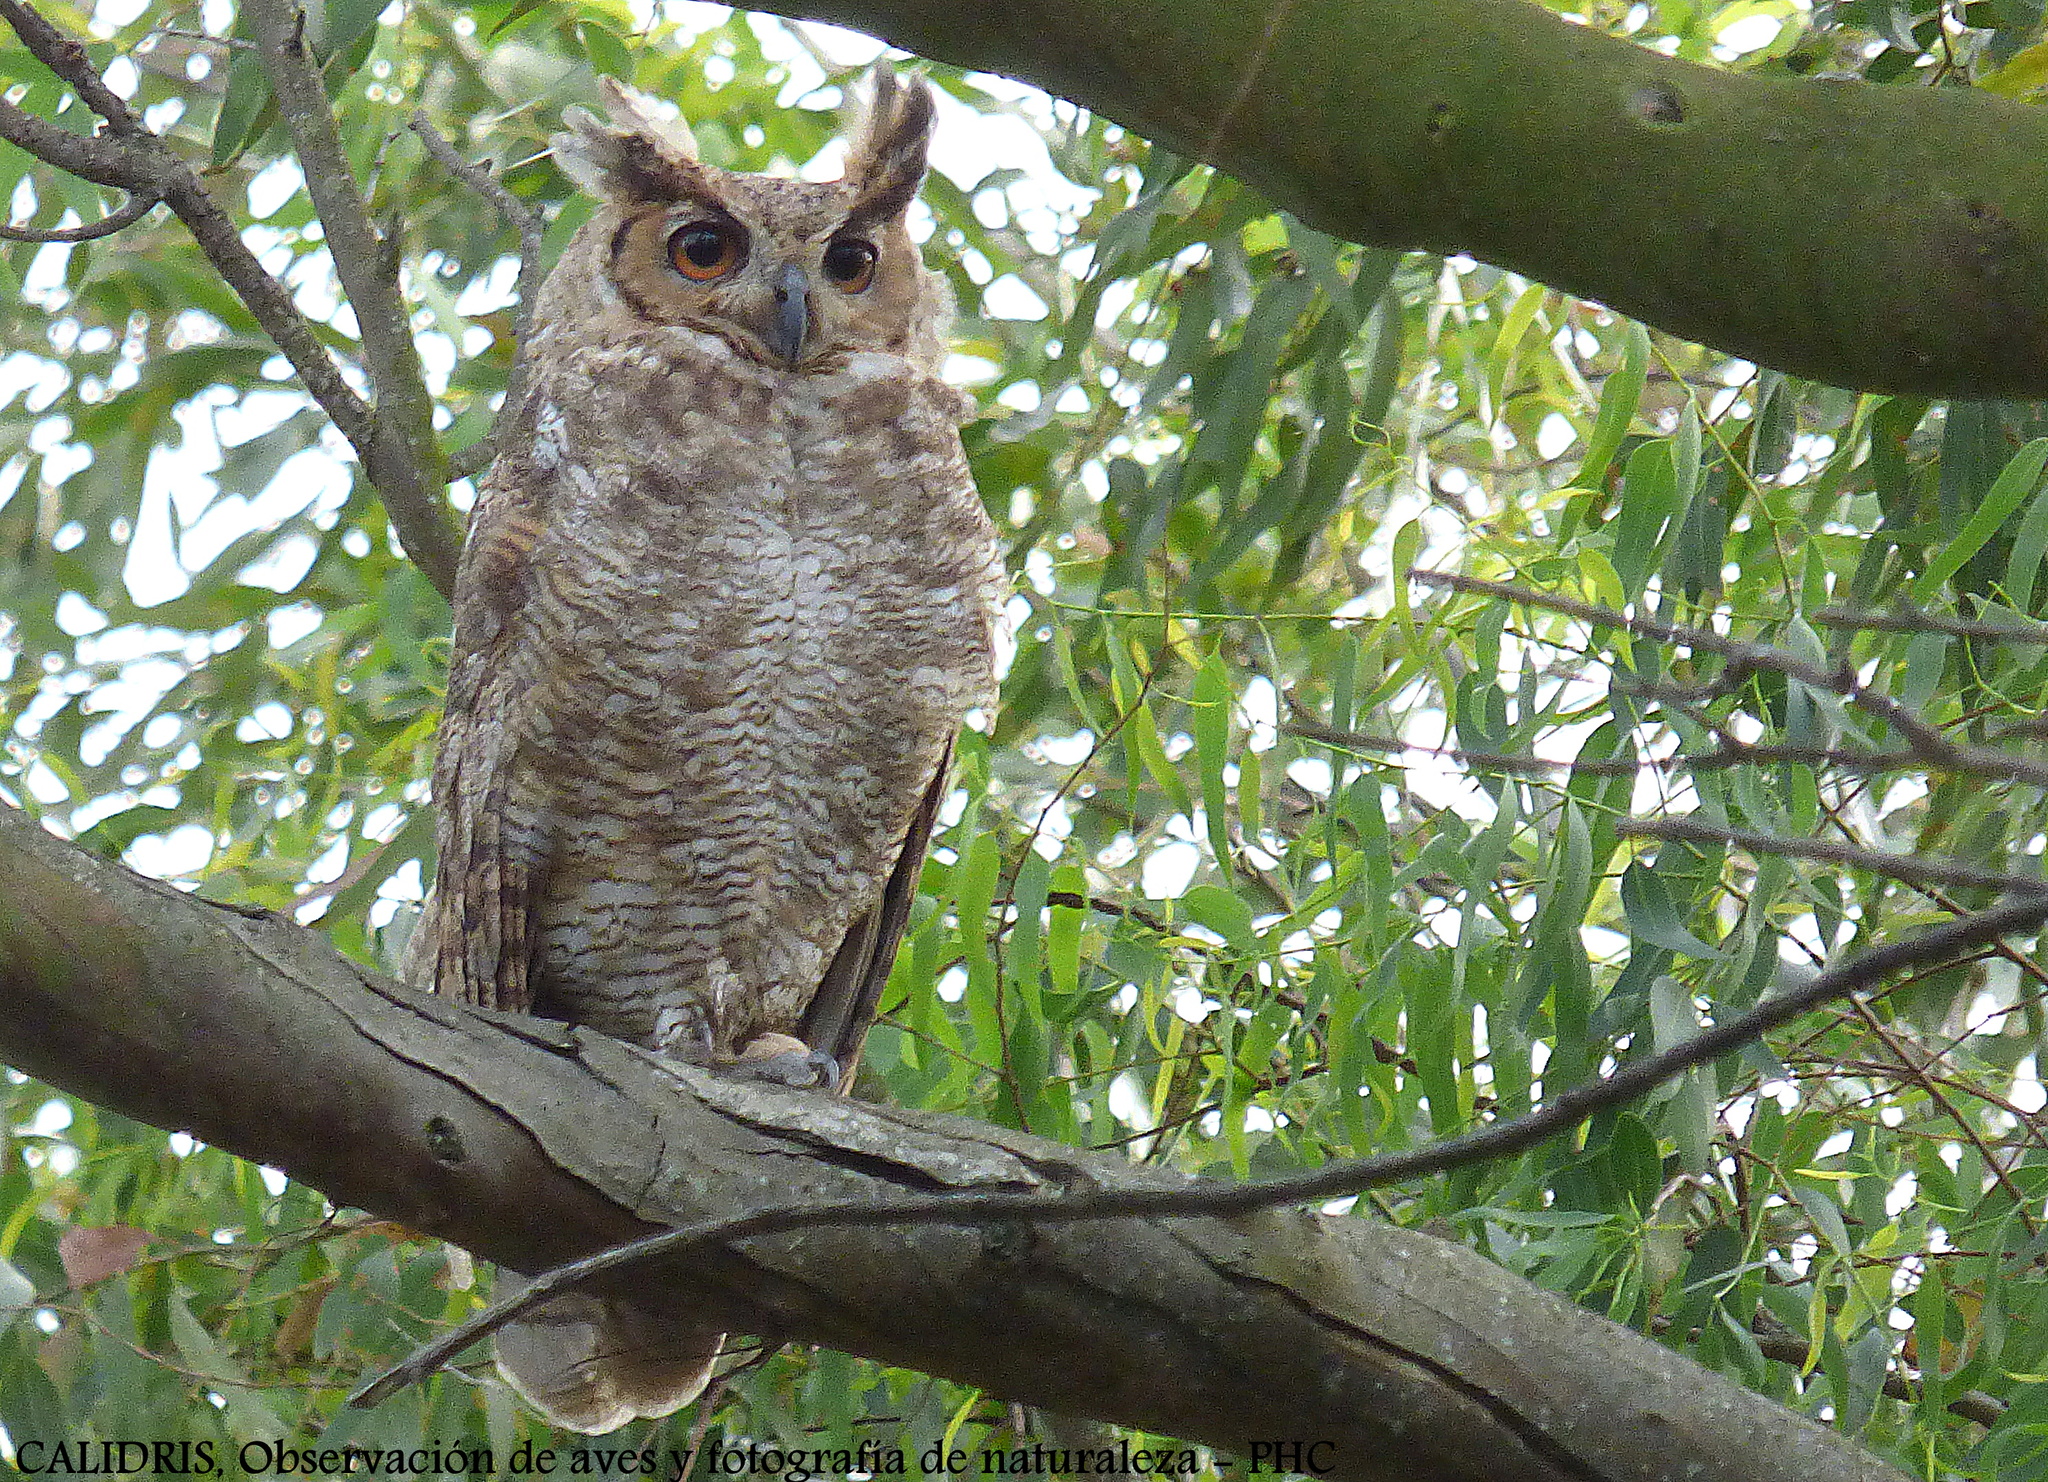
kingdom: Animalia
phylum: Chordata
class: Aves
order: Strigiformes
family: Strigidae
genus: Bubo
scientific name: Bubo virginianus
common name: Great horned owl
